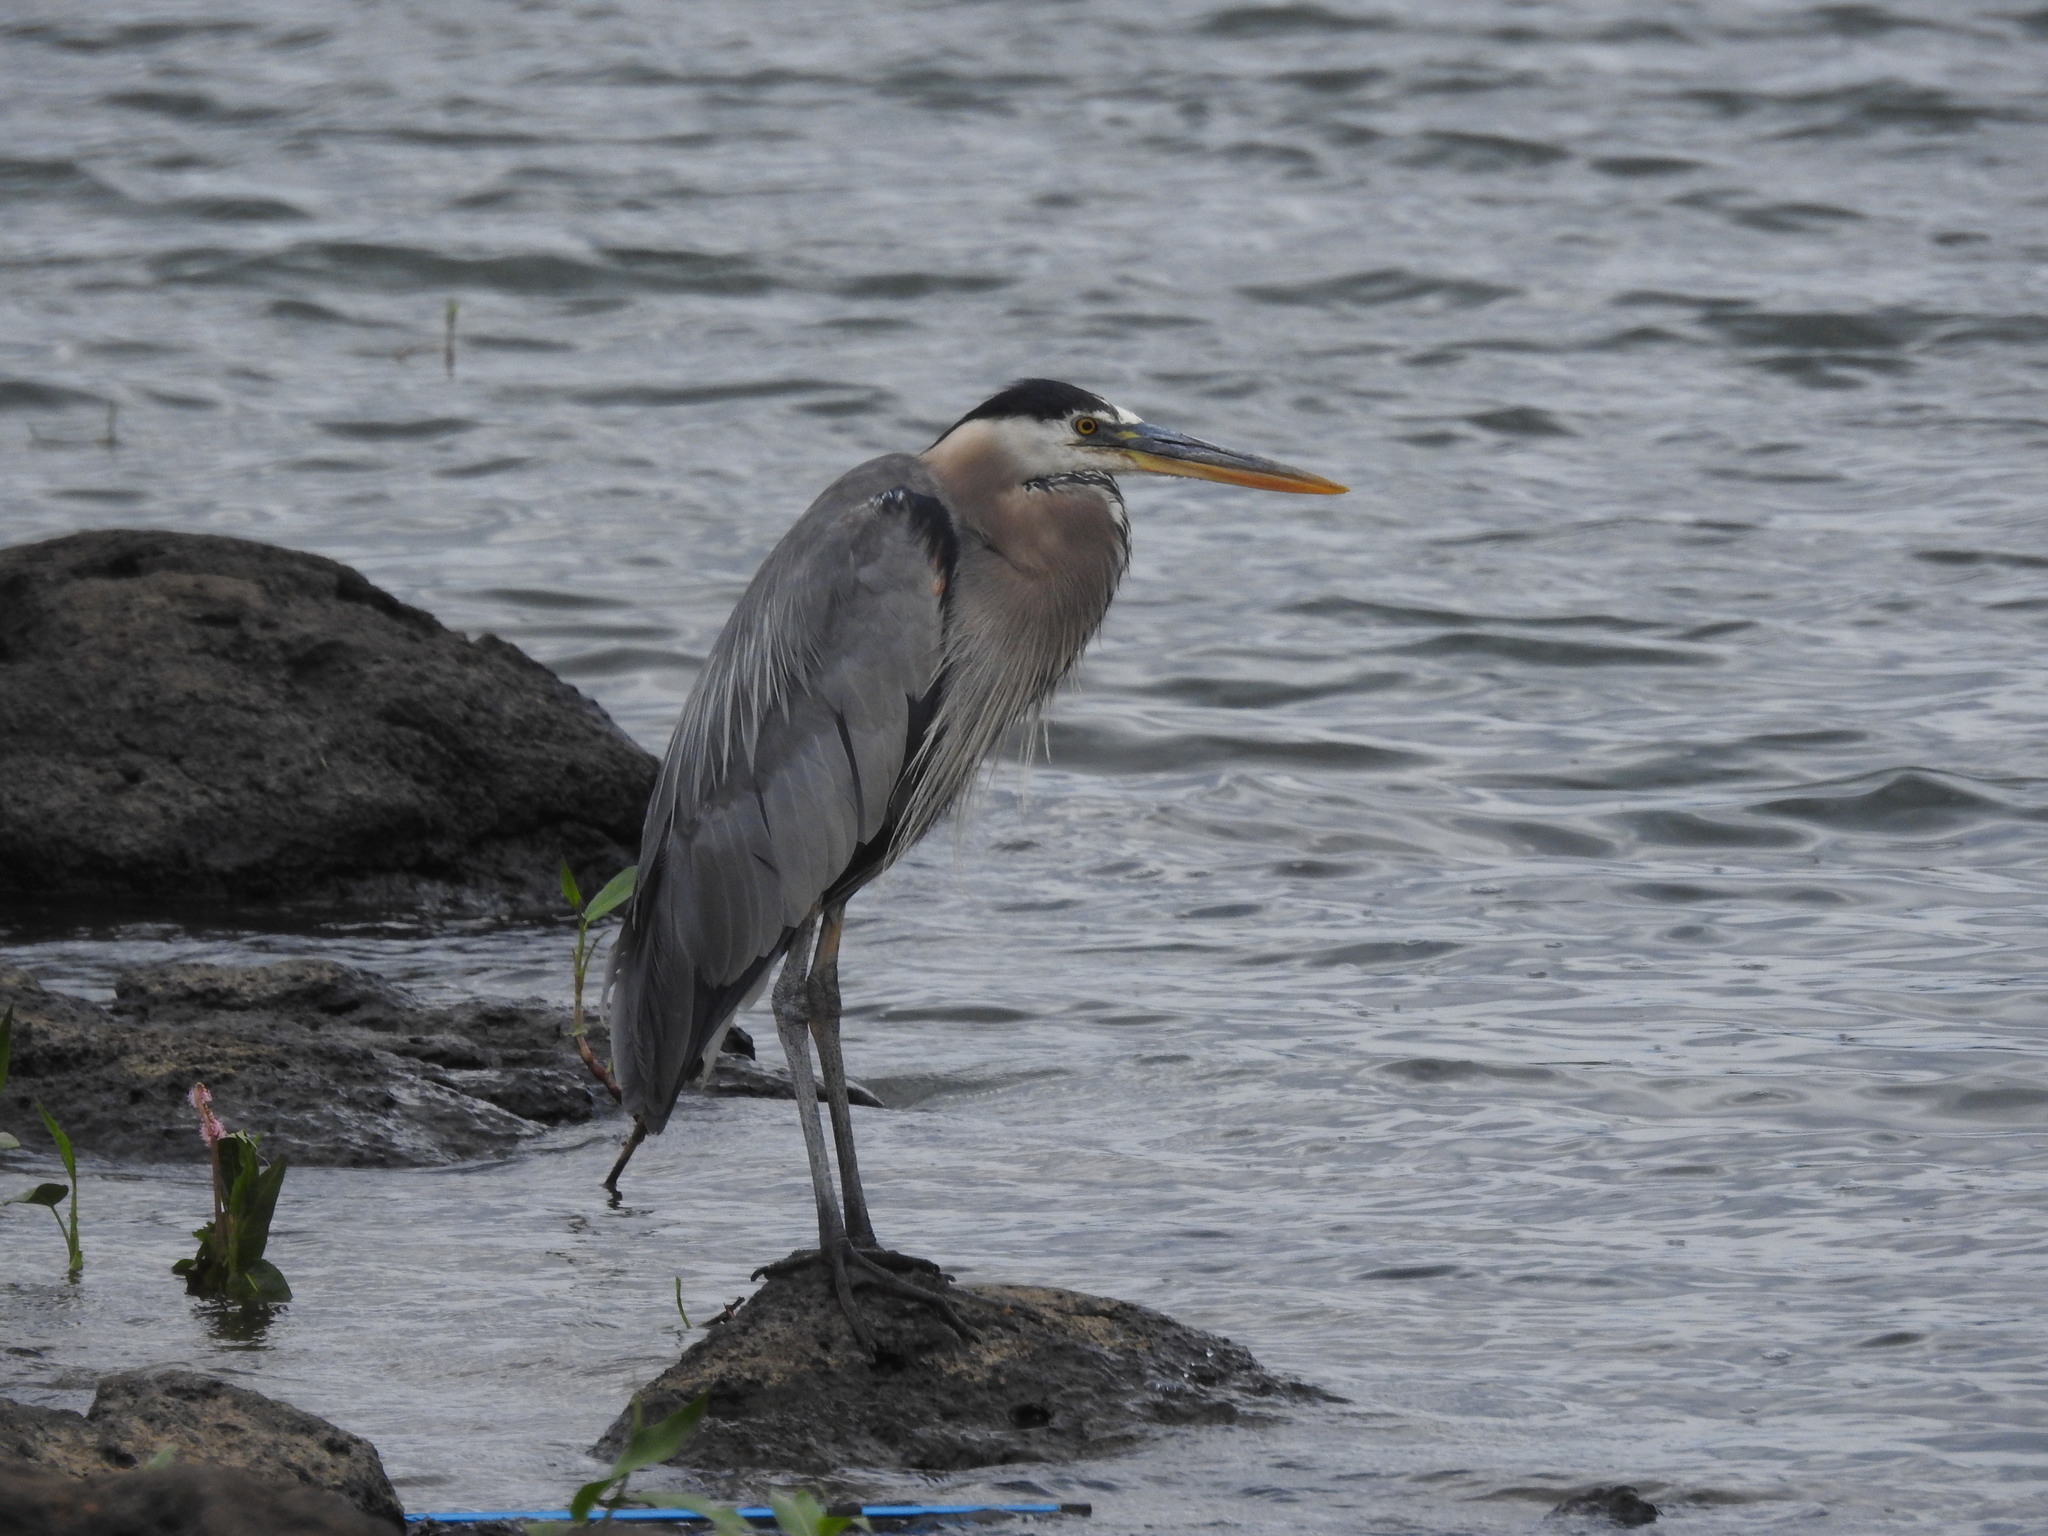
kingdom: Animalia
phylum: Chordata
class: Aves
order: Pelecaniformes
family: Ardeidae
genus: Ardea
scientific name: Ardea herodias
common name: Great blue heron
